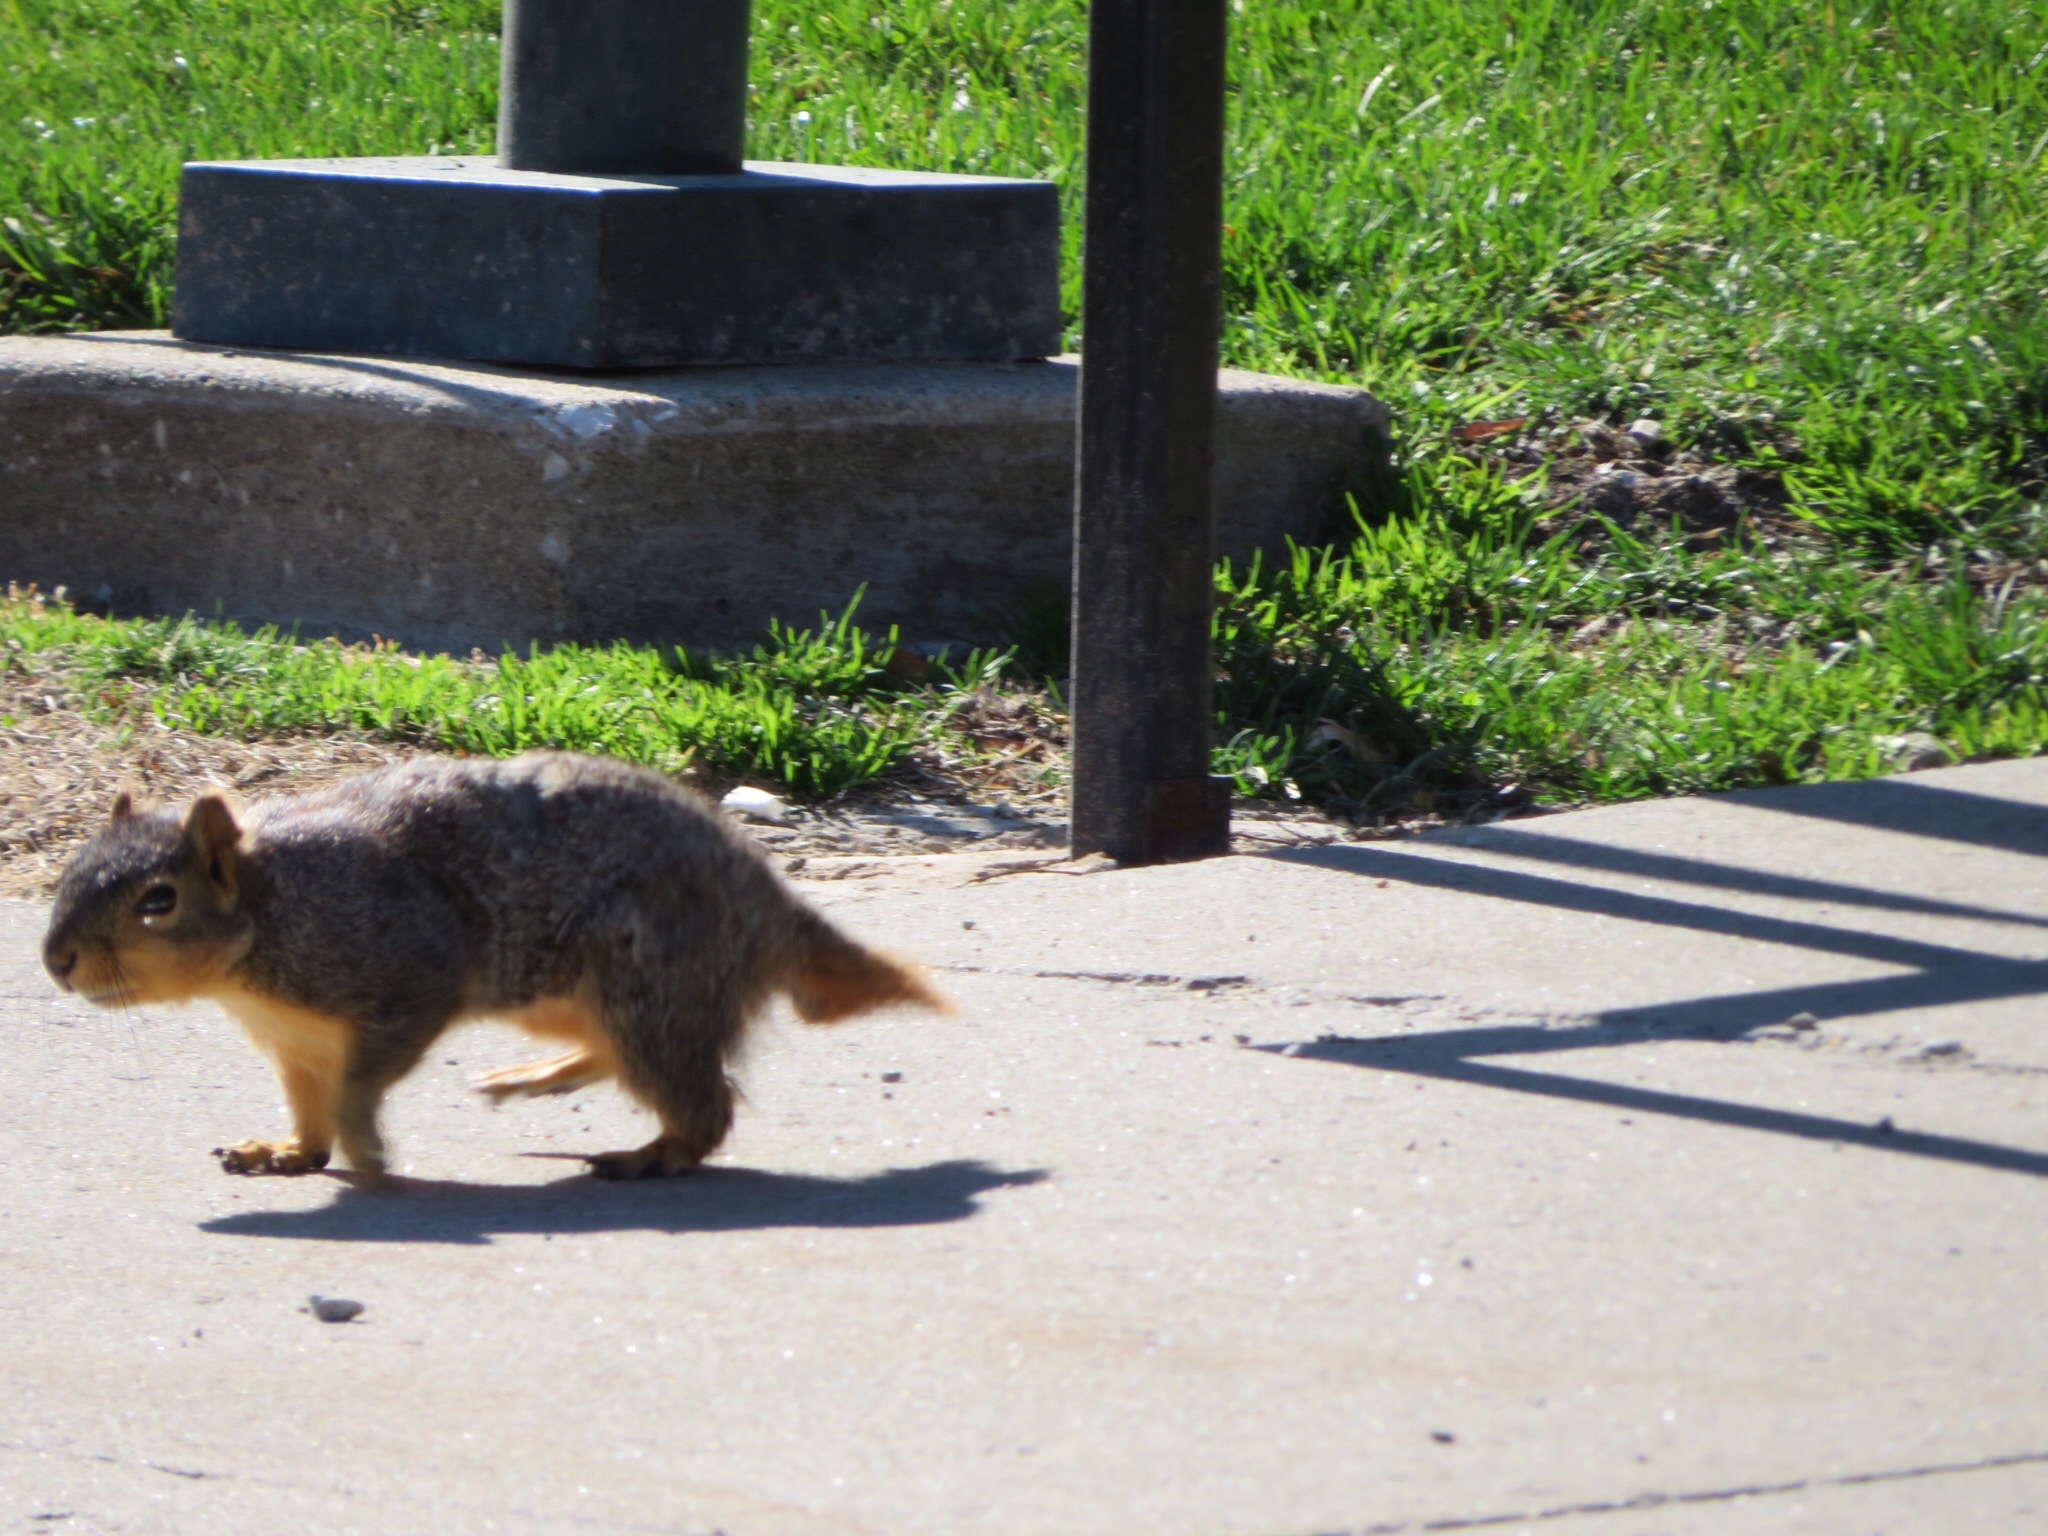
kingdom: Animalia
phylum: Chordata
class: Mammalia
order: Rodentia
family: Sciuridae
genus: Sciurus
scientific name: Sciurus niger
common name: Fox squirrel
